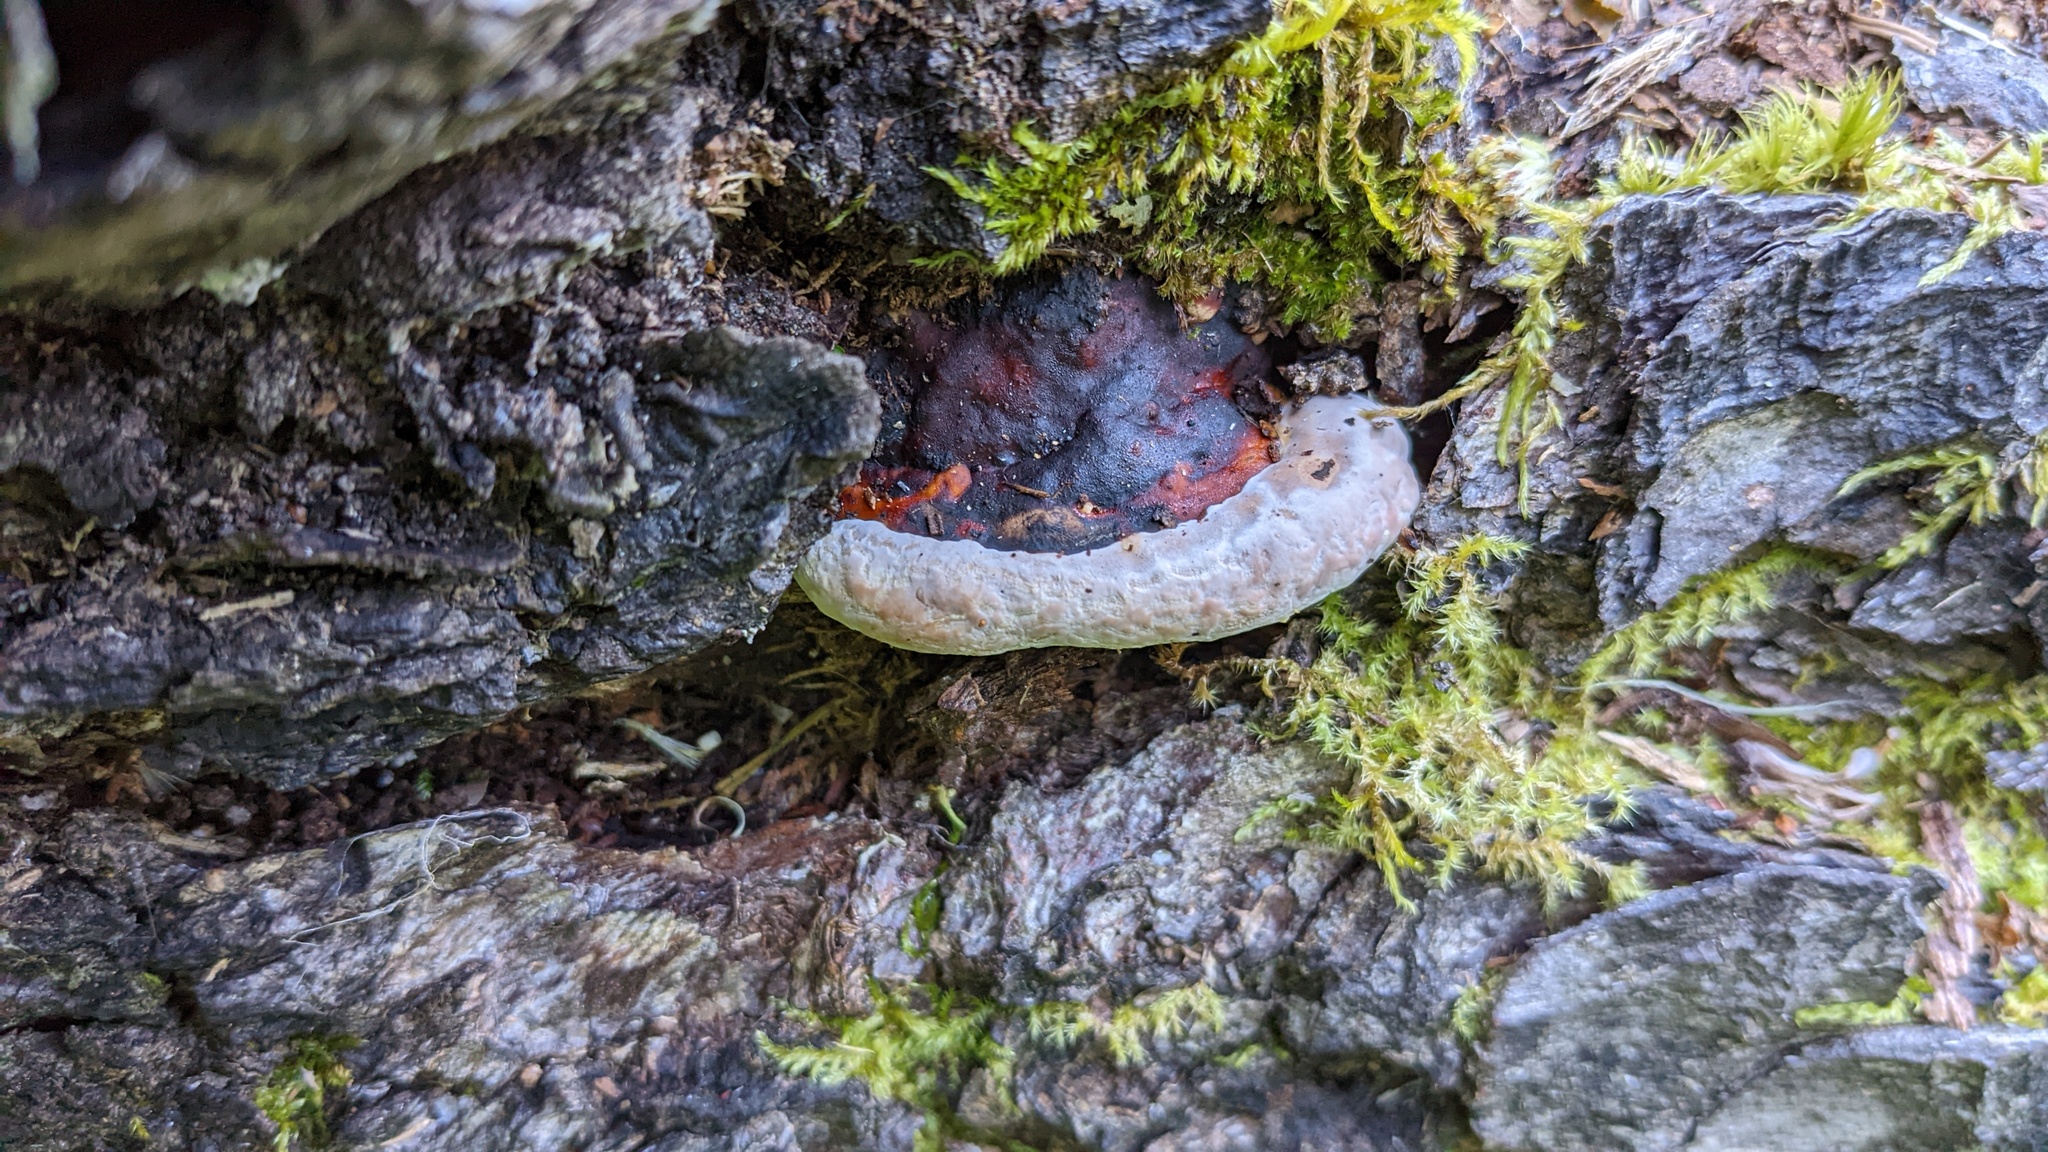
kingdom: Fungi
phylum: Basidiomycota
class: Agaricomycetes
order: Polyporales
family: Fomitopsidaceae
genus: Fomitopsis
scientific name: Fomitopsis pinicola
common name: Red-belted bracket
